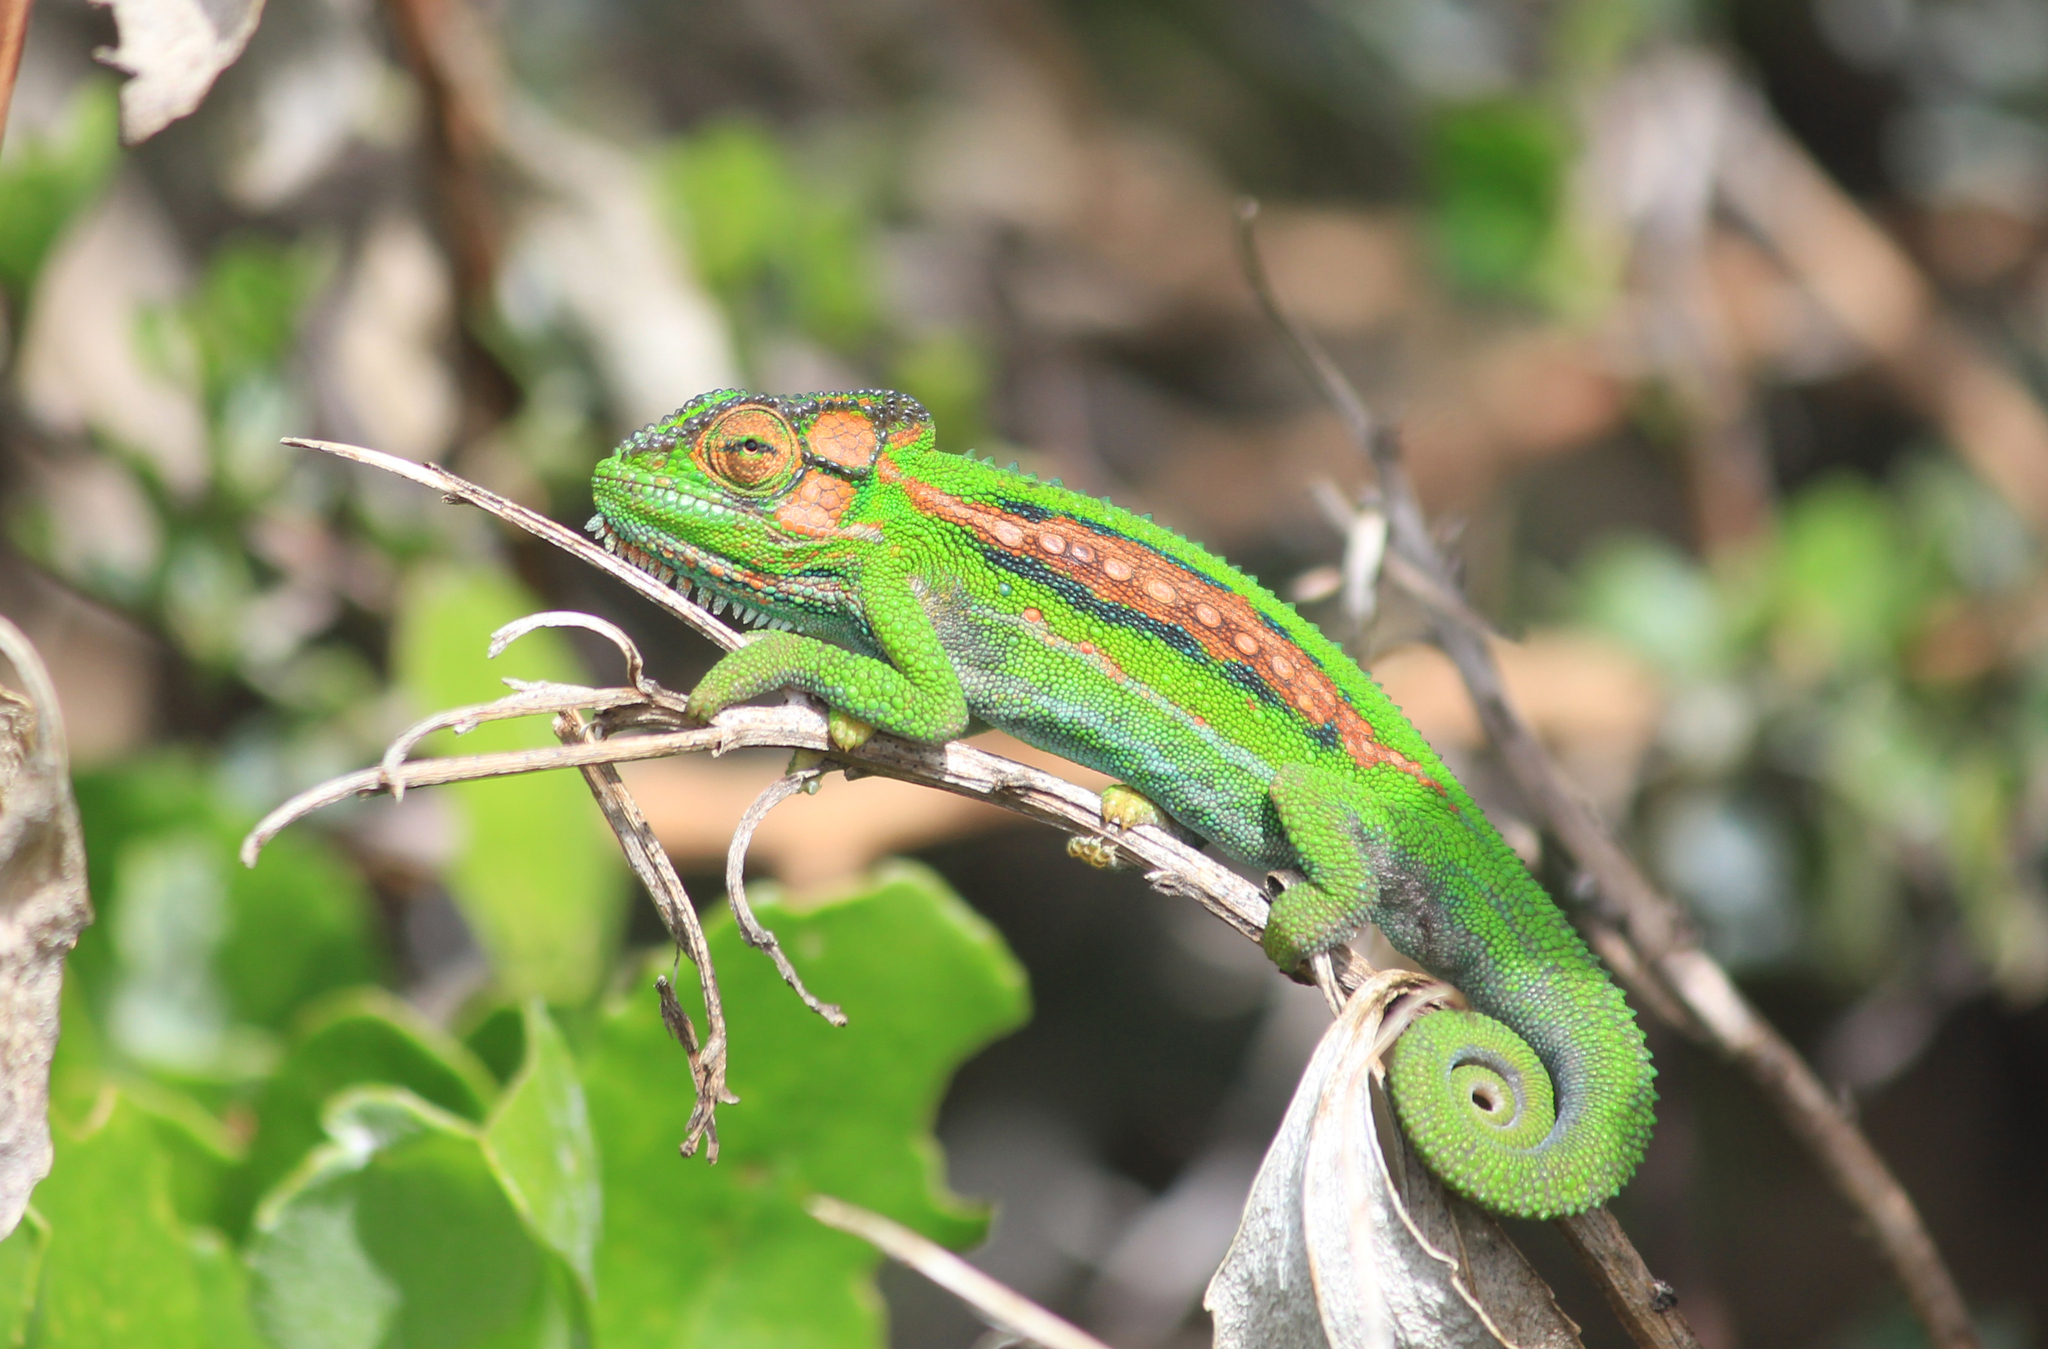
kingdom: Animalia
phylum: Chordata
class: Squamata
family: Chamaeleonidae
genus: Bradypodion
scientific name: Bradypodion pumilum
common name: Cape dwarf chameleon
